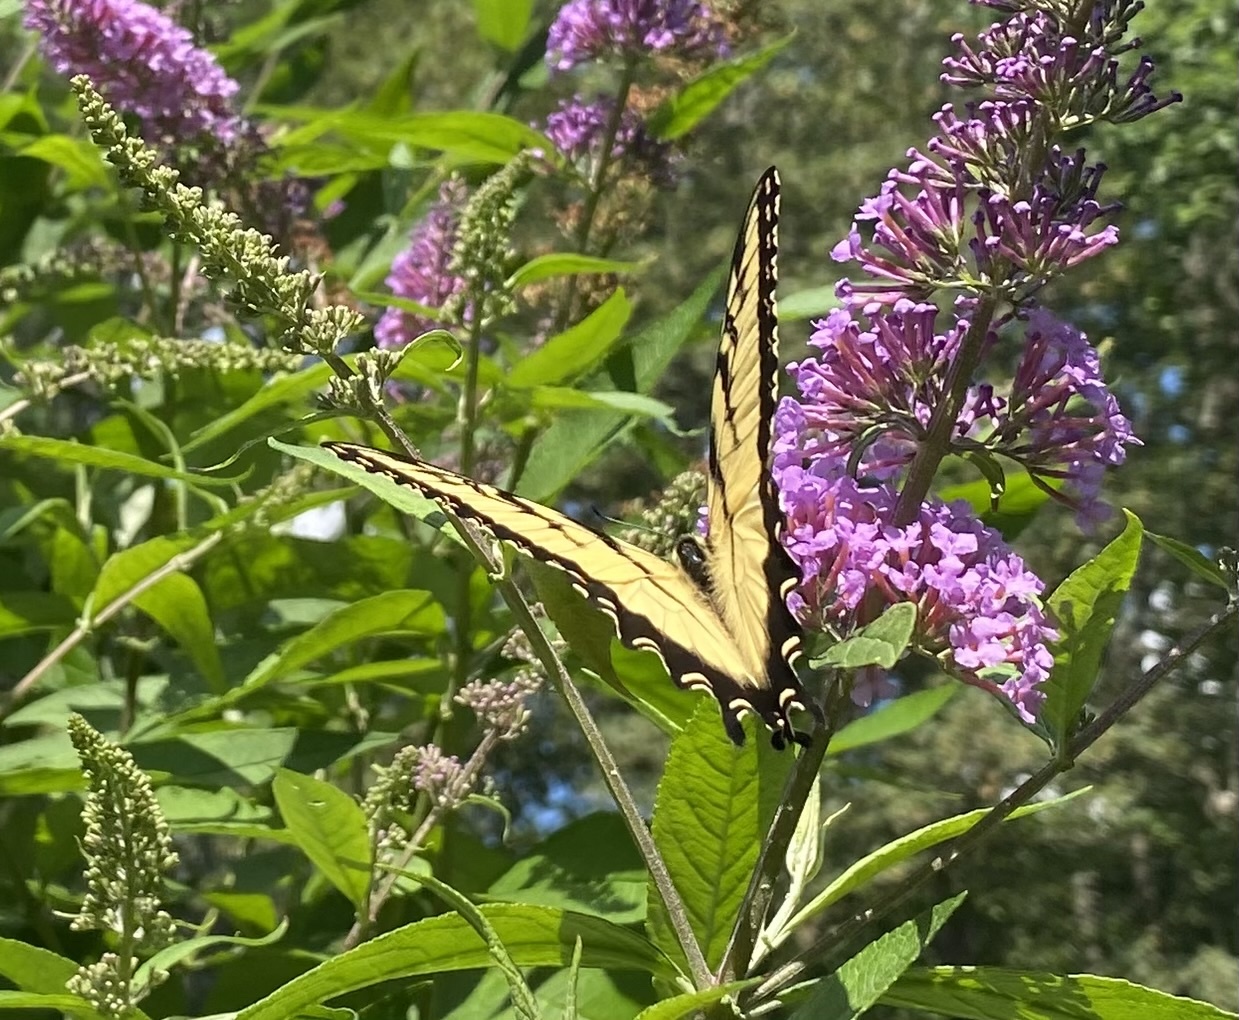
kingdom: Animalia
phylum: Arthropoda
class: Insecta
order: Lepidoptera
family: Papilionidae
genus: Papilio
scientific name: Papilio glaucus
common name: Tiger swallowtail
